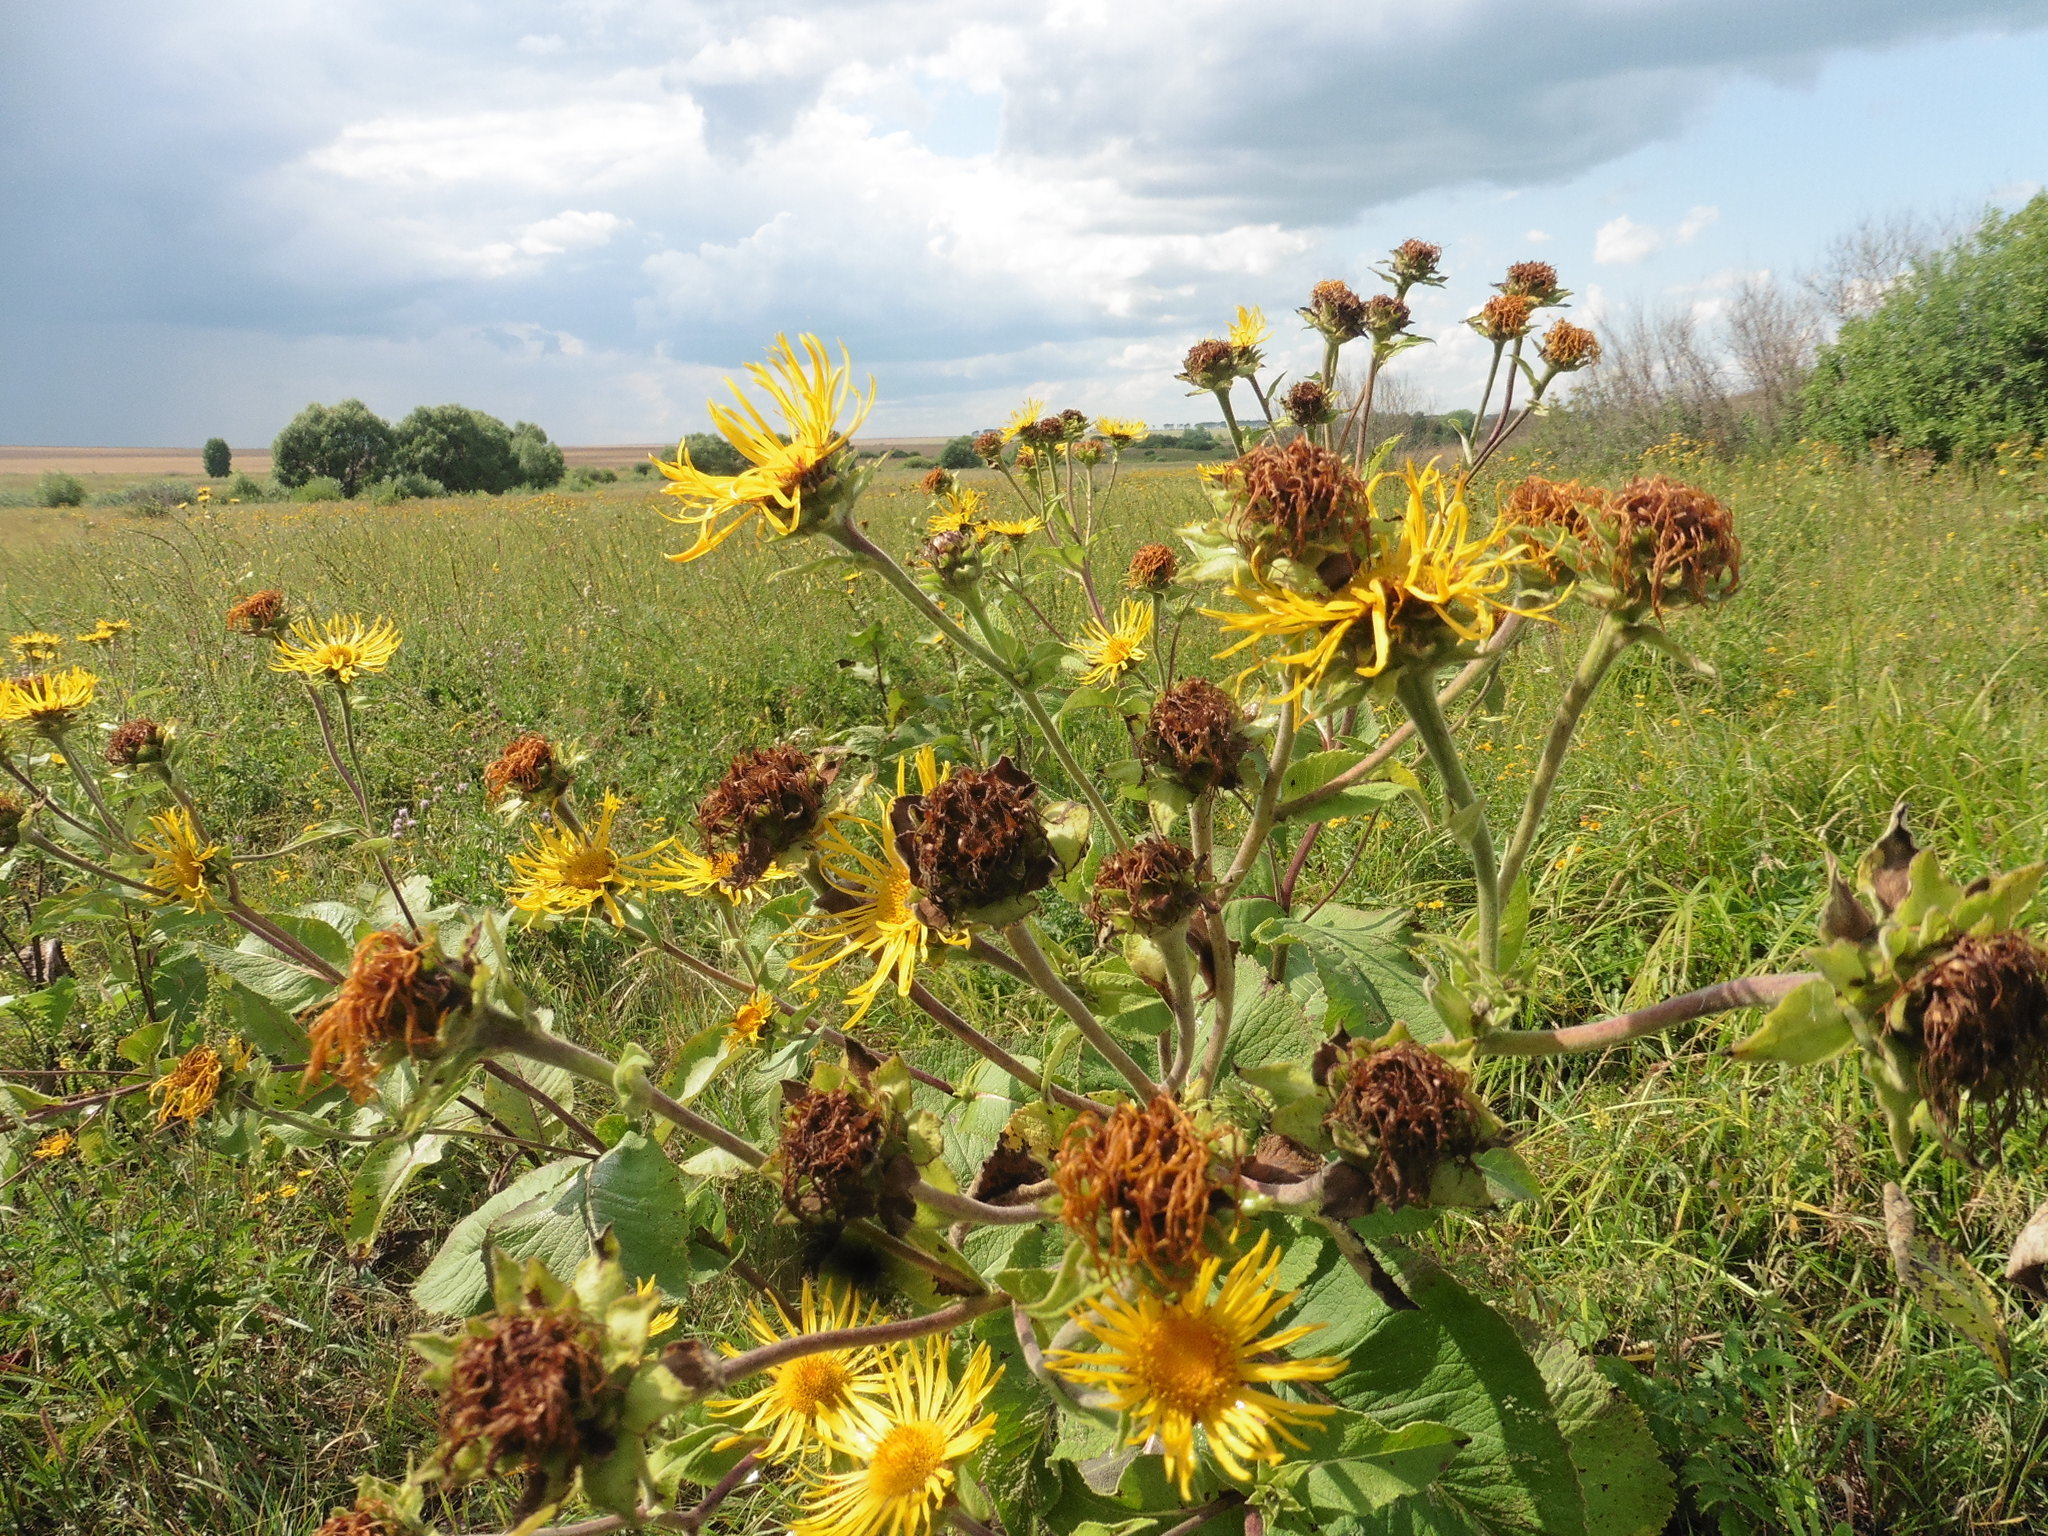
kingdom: Plantae
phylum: Tracheophyta
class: Magnoliopsida
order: Asterales
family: Asteraceae
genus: Inula
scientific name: Inula helenium
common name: Elecampane
